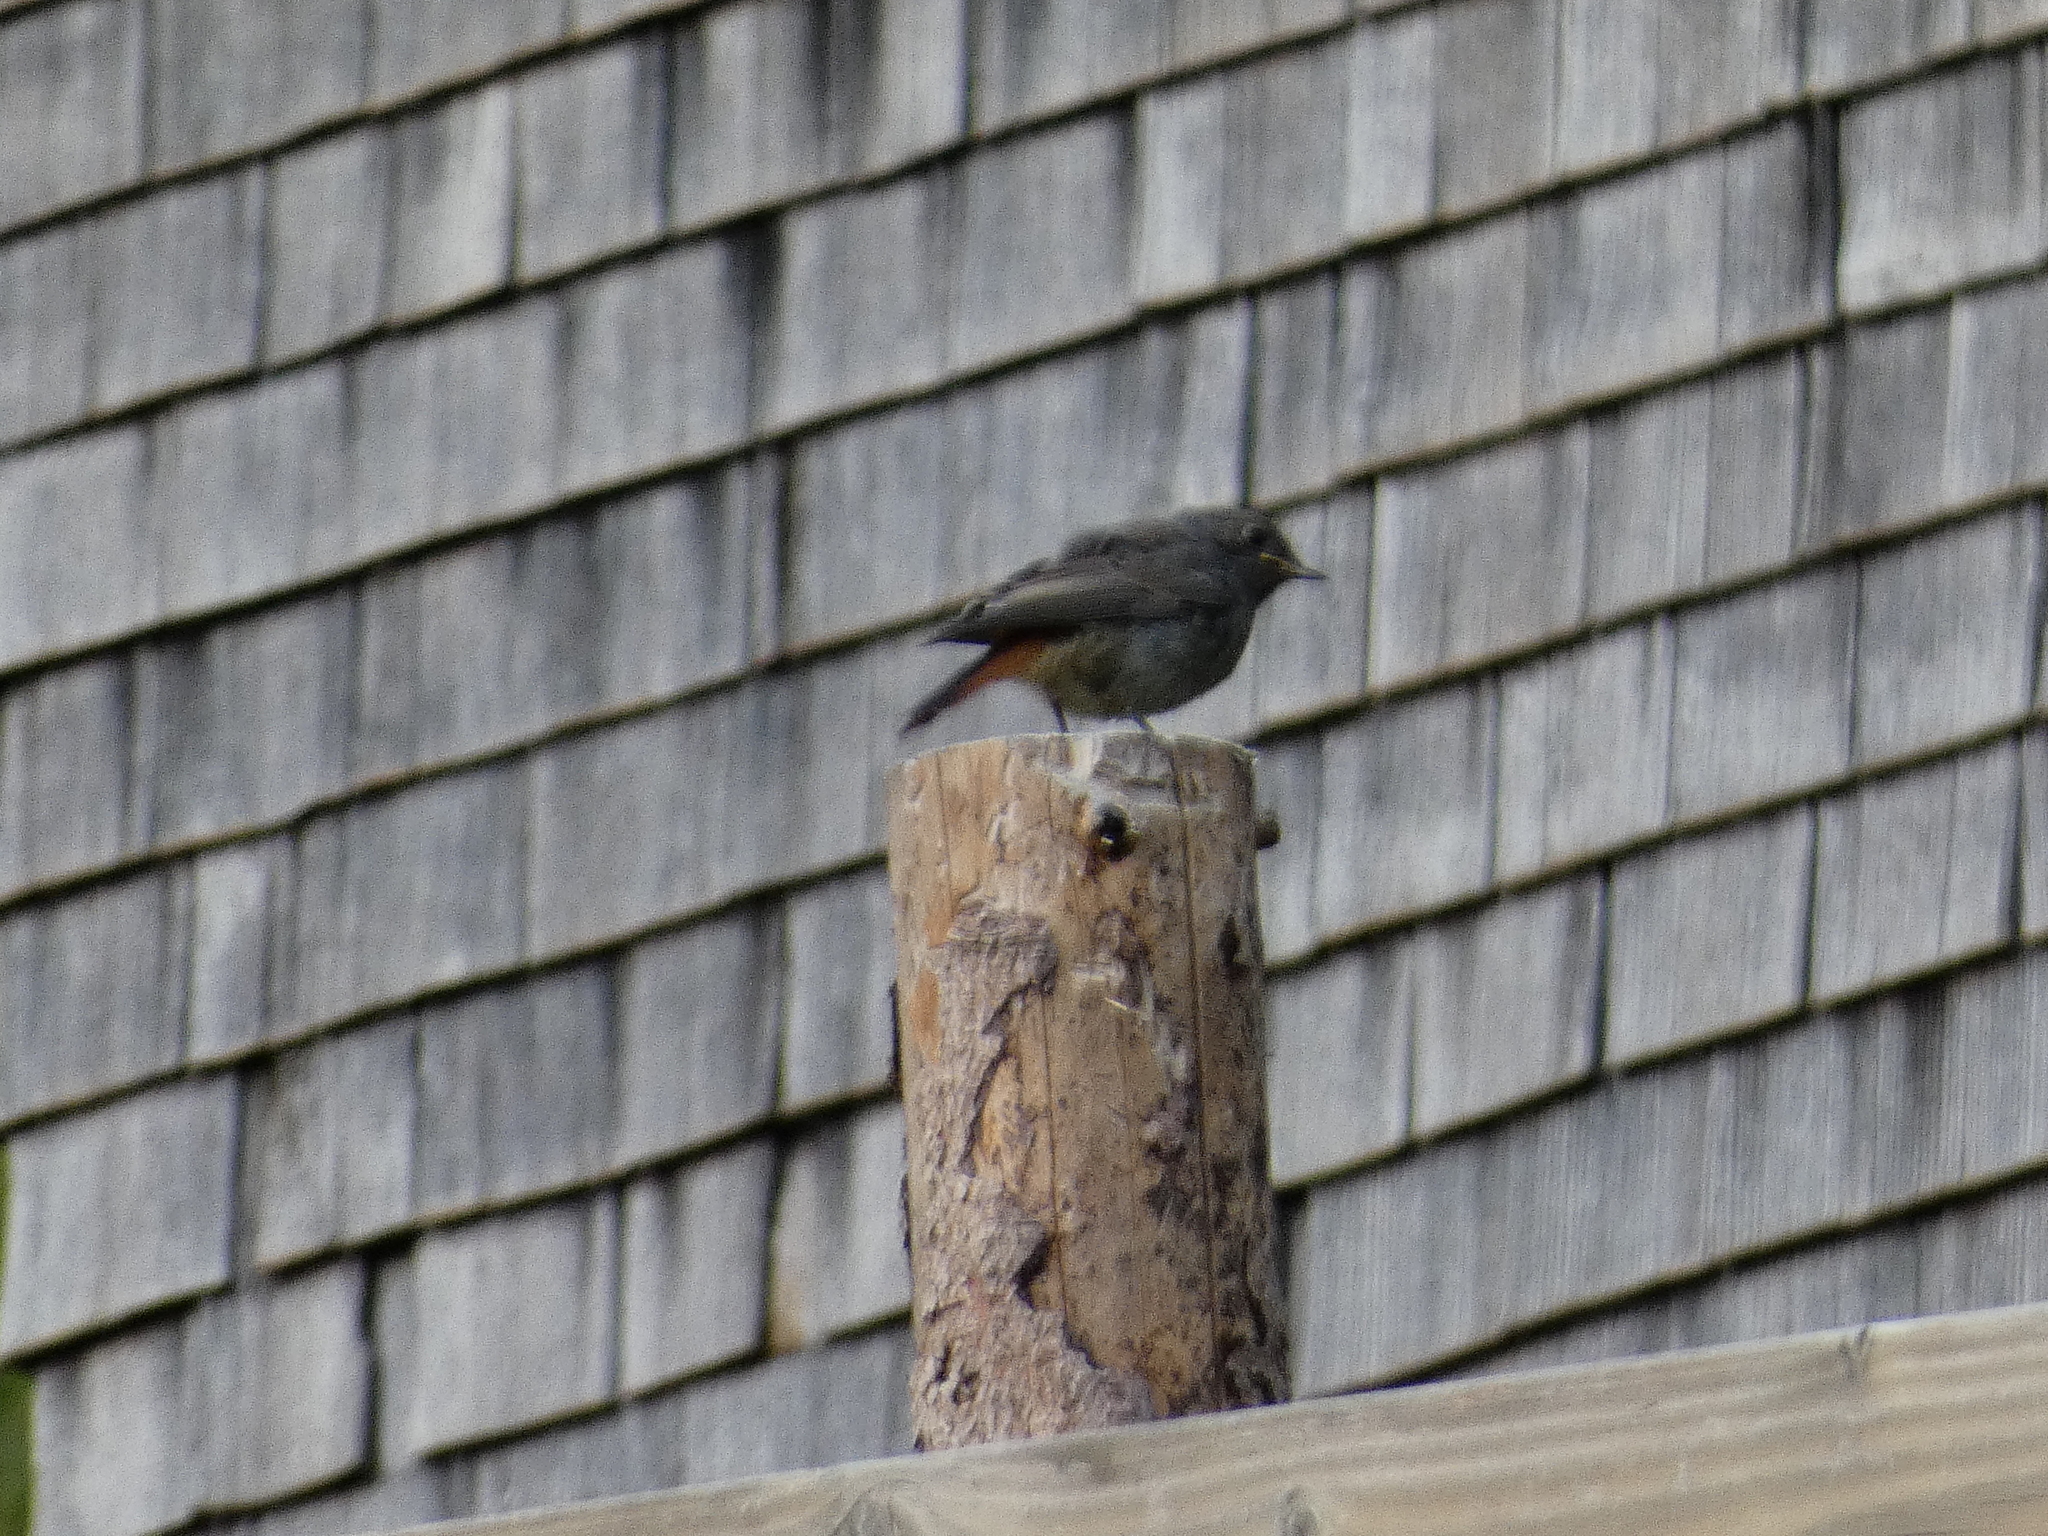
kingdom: Animalia
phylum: Chordata
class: Aves
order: Passeriformes
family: Muscicapidae
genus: Phoenicurus
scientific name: Phoenicurus ochruros
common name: Black redstart
